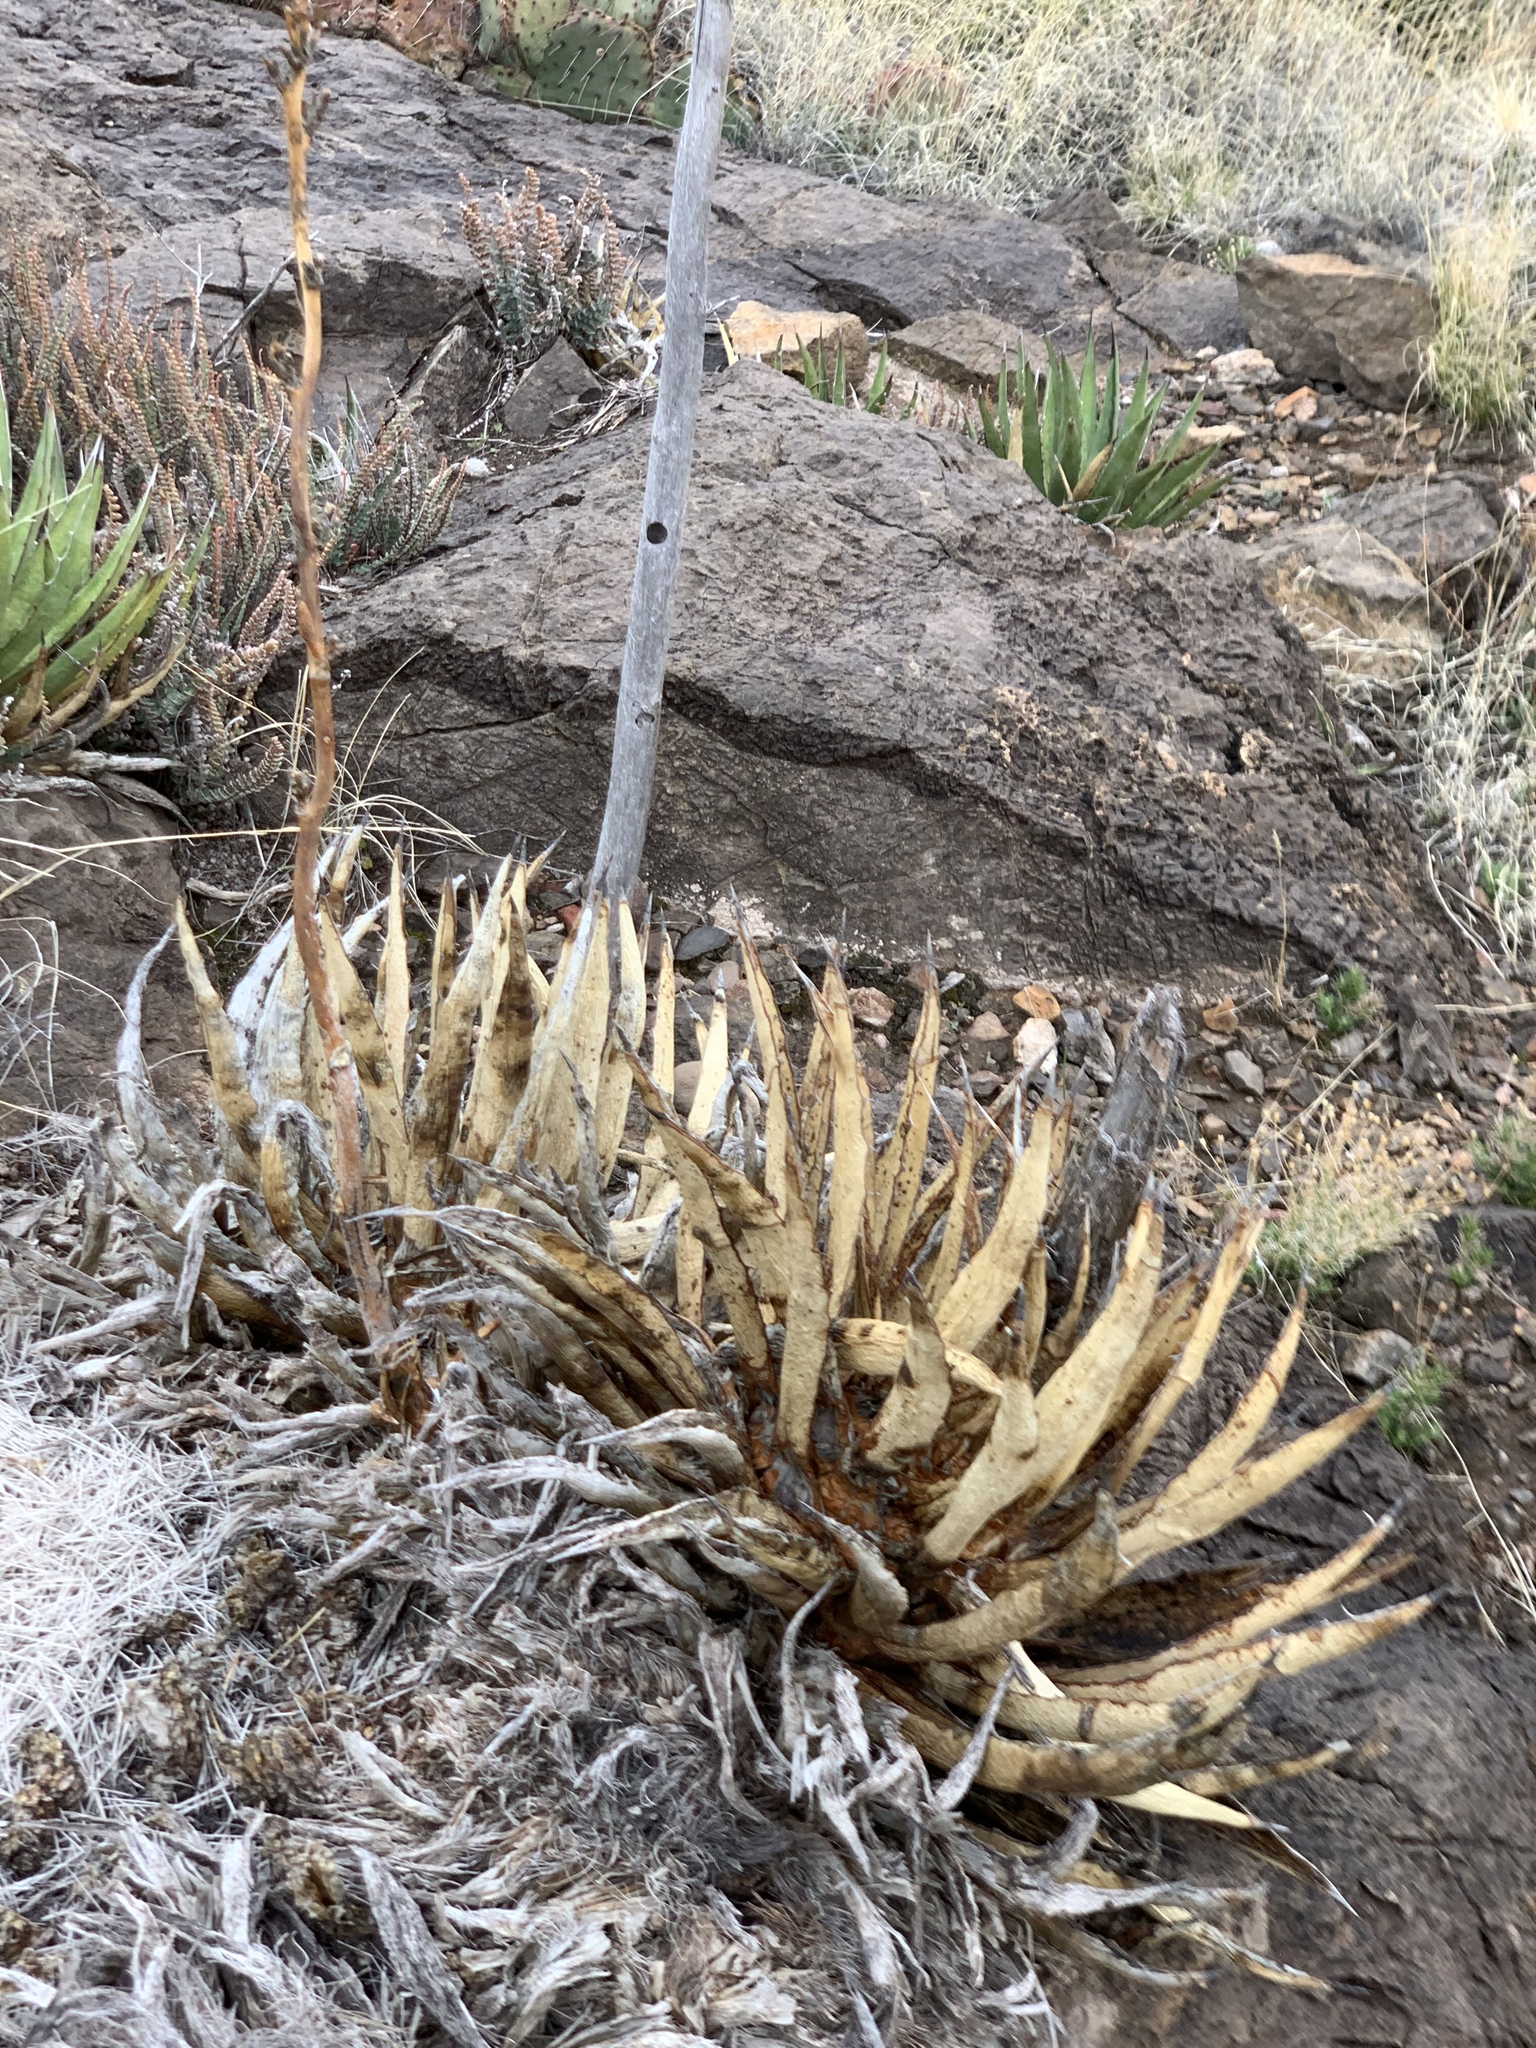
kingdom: Plantae
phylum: Tracheophyta
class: Liliopsida
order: Asparagales
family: Asparagaceae
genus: Agave
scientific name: Agave lechuguilla
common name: Lecheguilla agave
